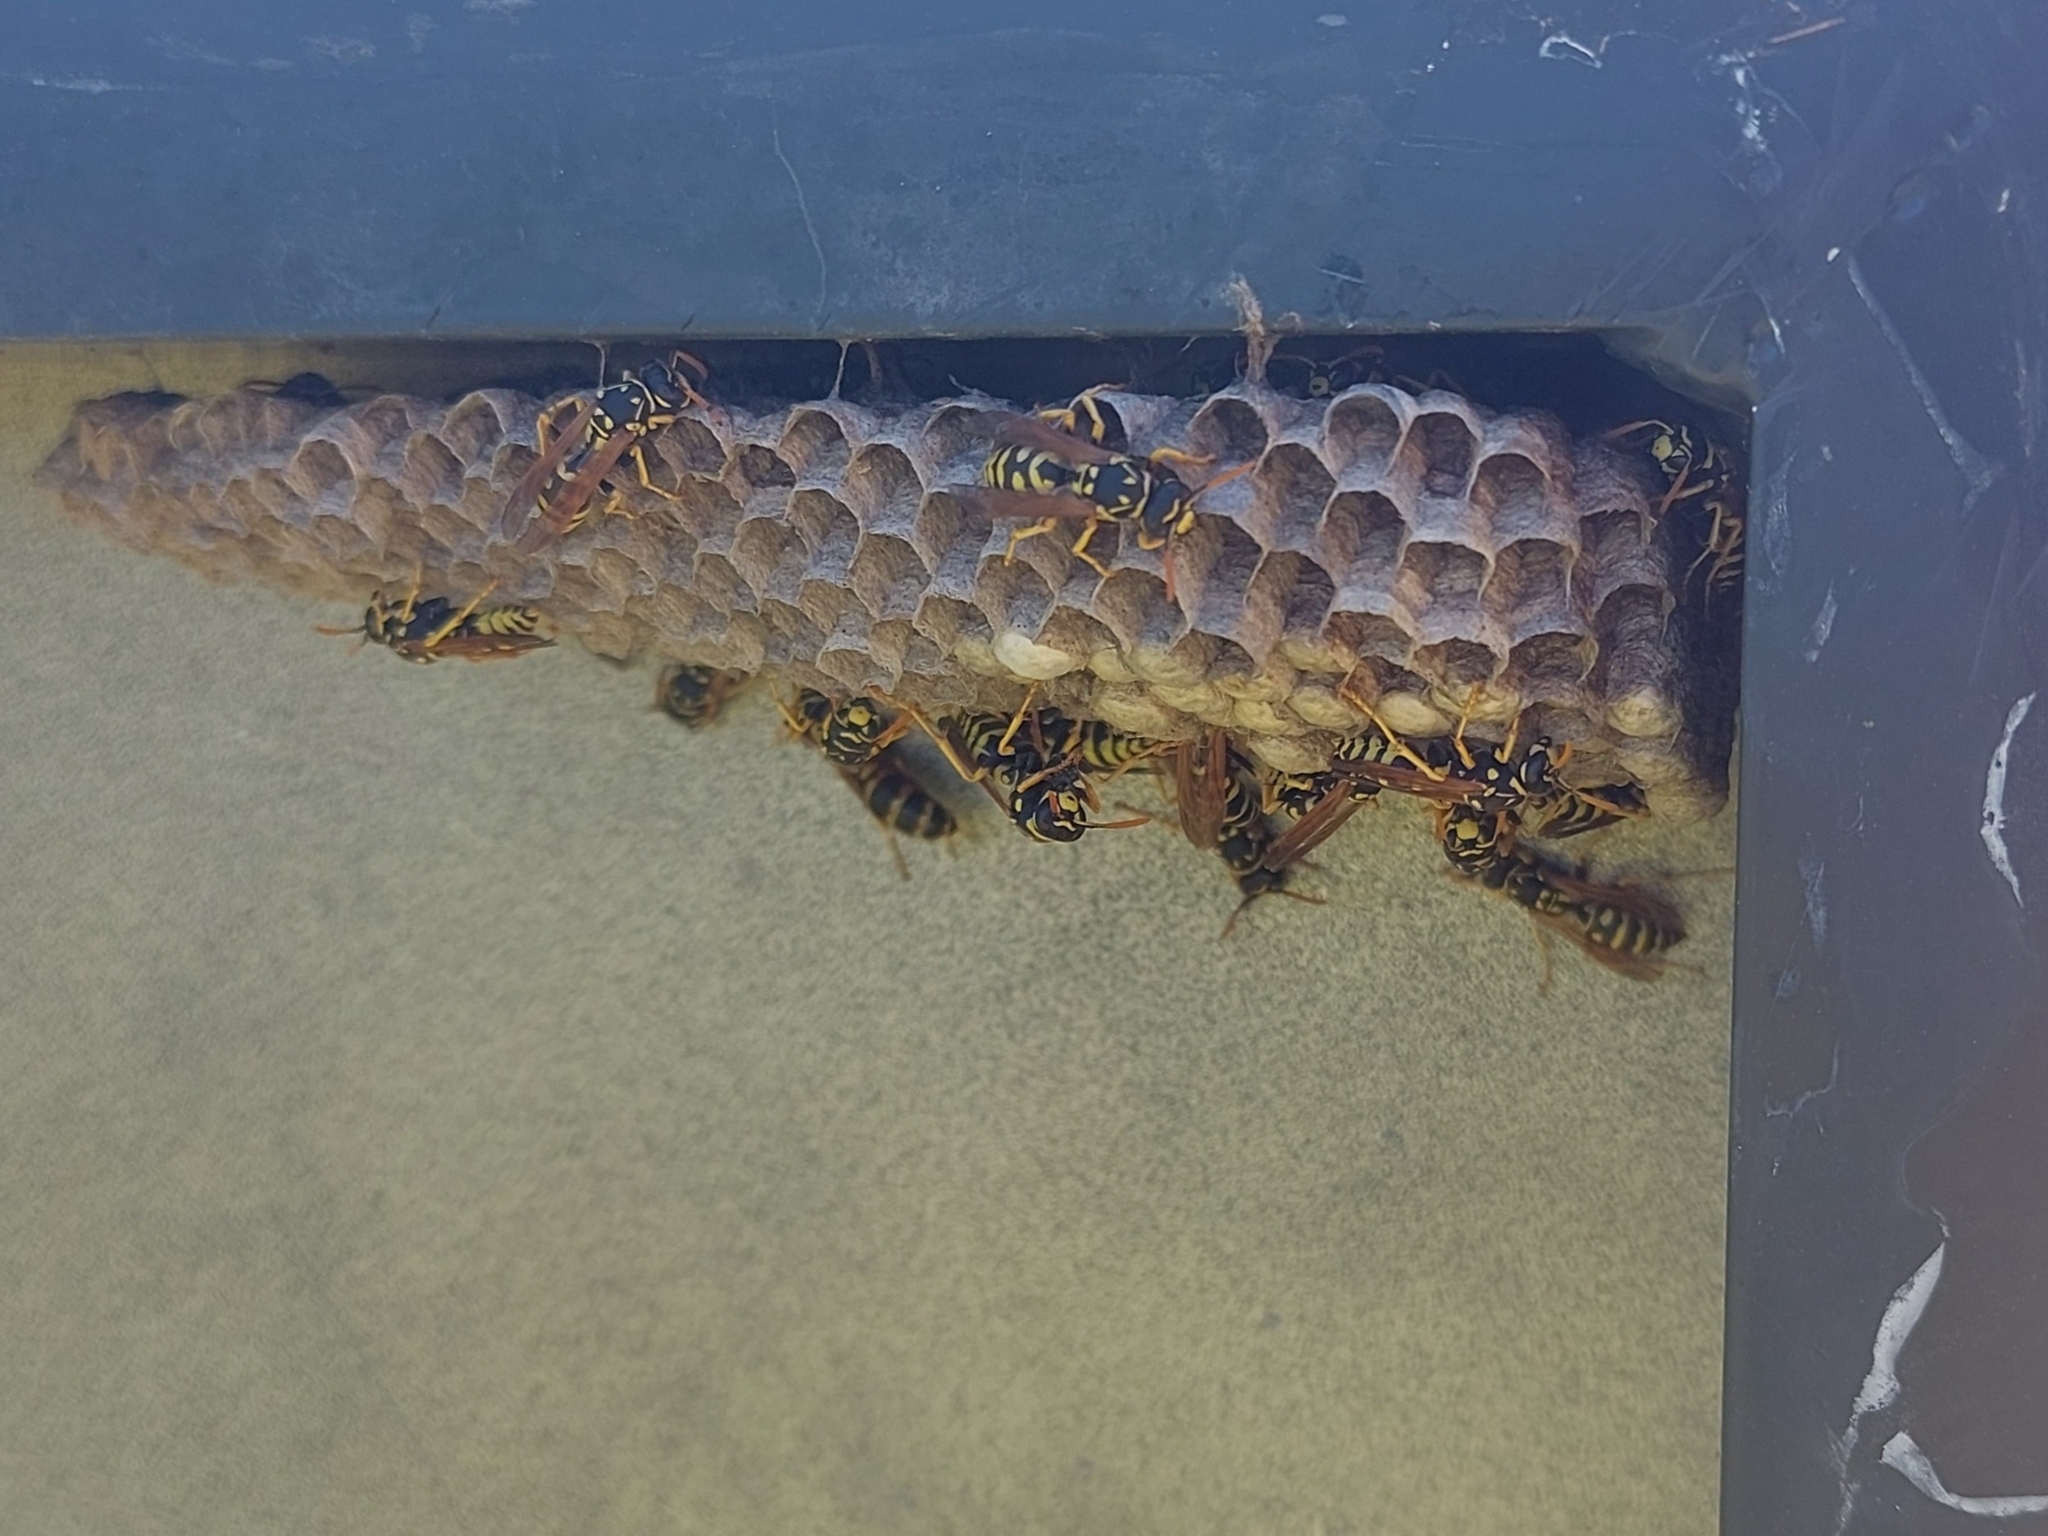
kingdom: Animalia
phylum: Arthropoda
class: Insecta
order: Hymenoptera
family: Eumenidae
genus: Polistes
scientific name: Polistes dominula
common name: Paper wasp
